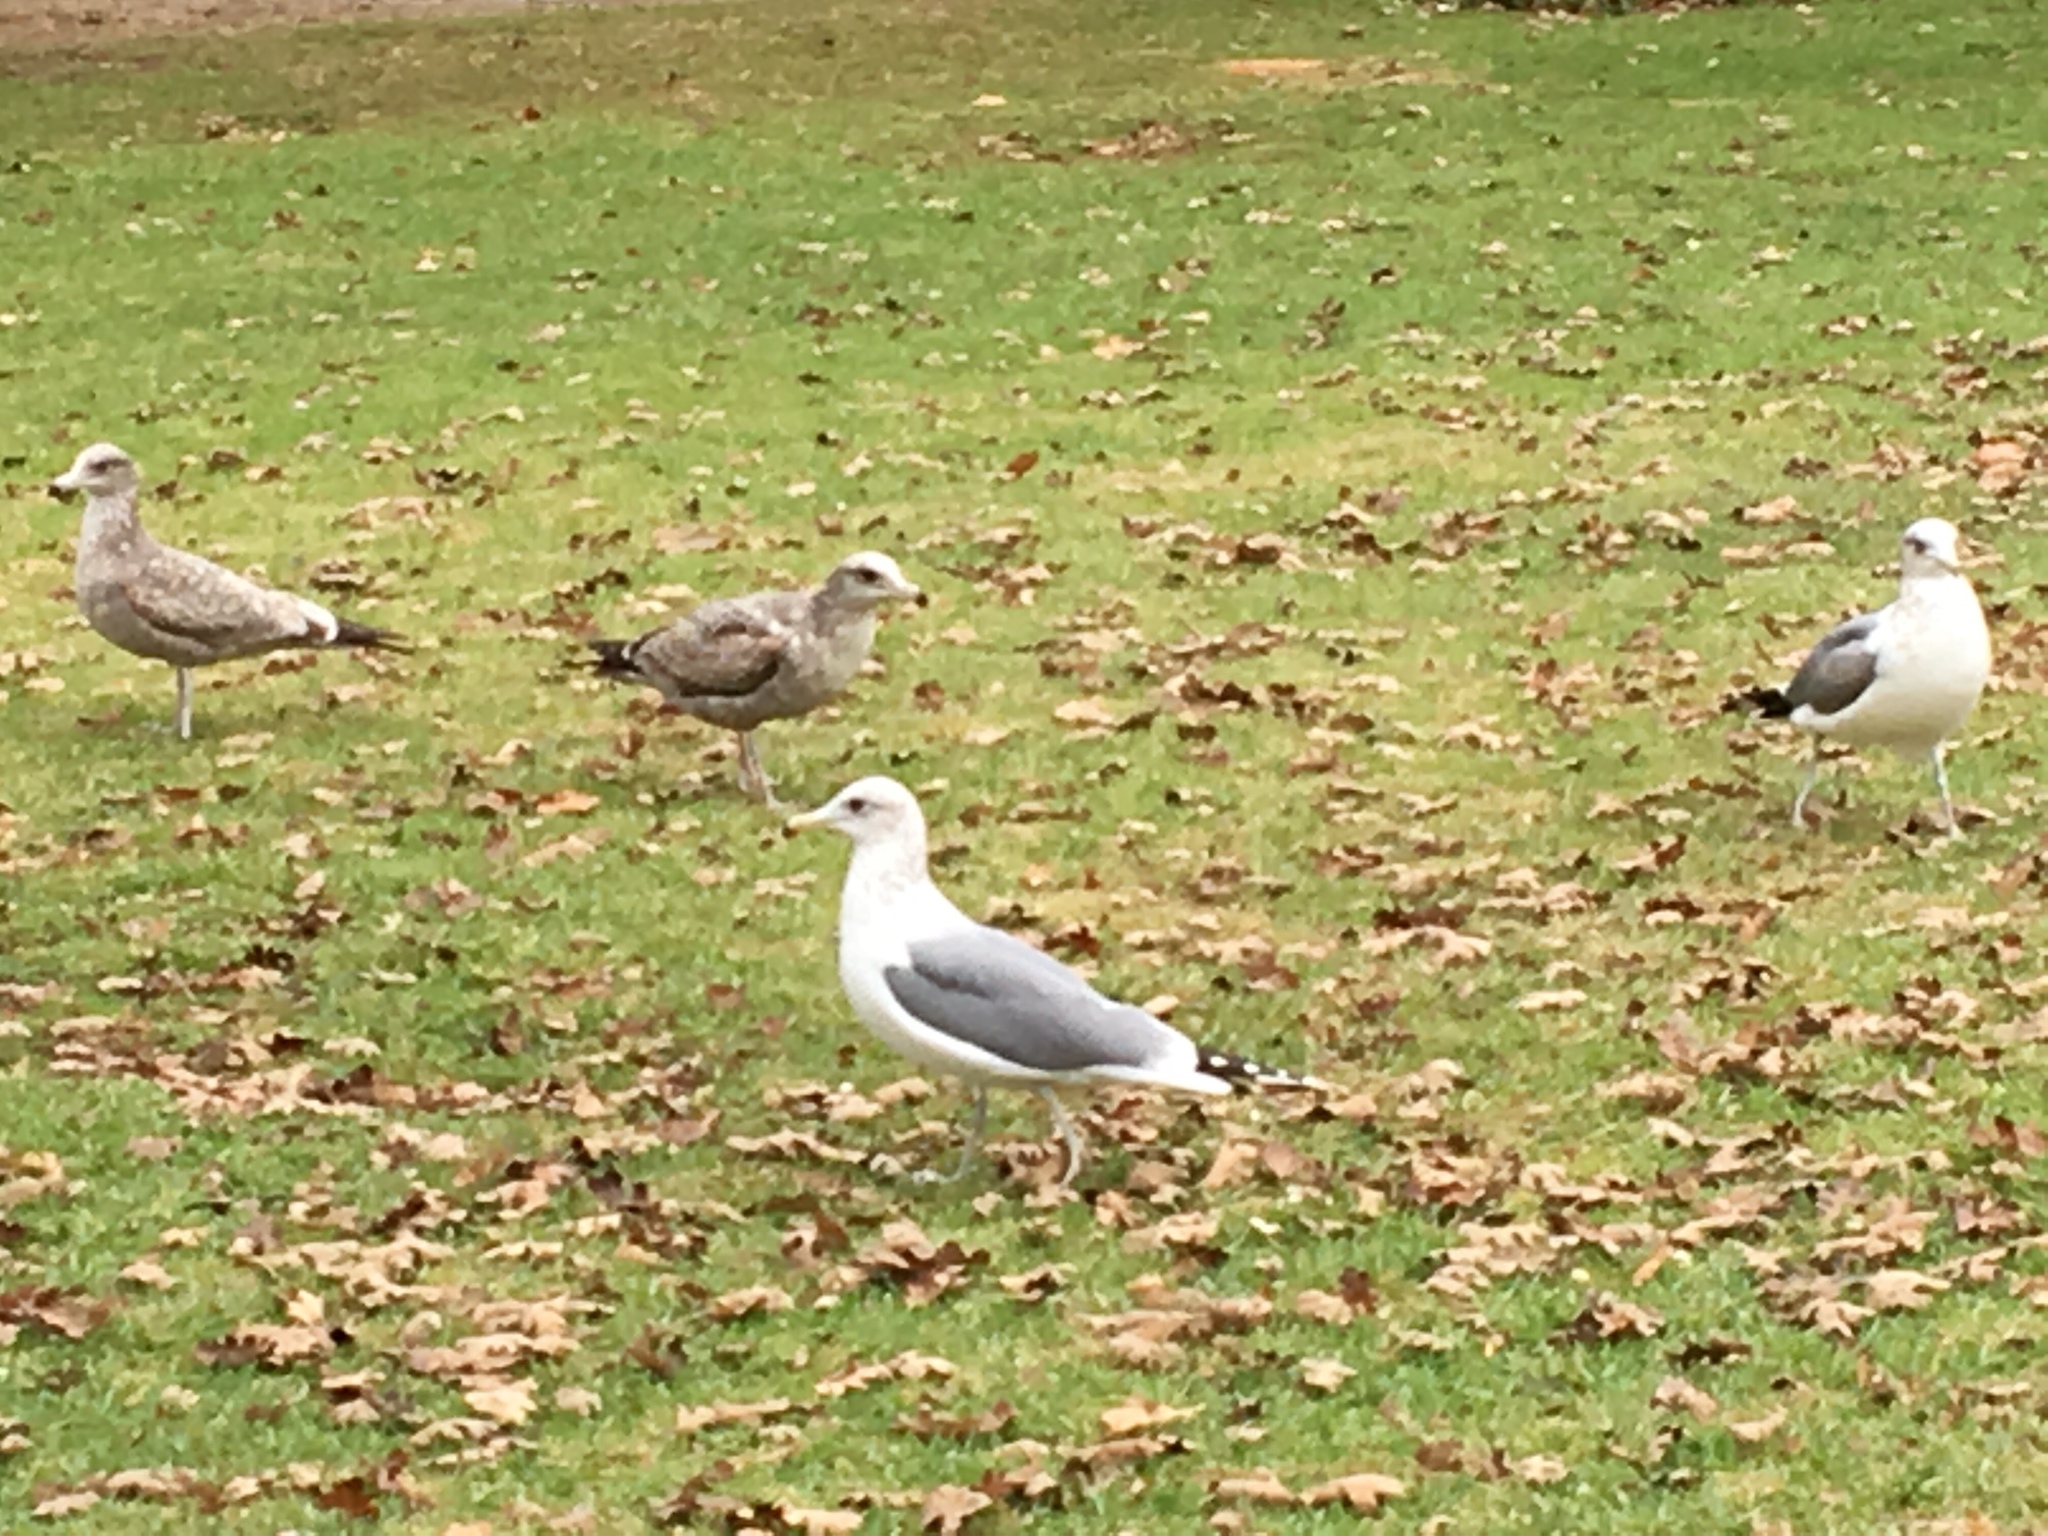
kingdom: Animalia
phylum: Chordata
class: Aves
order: Charadriiformes
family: Laridae
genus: Larus
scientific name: Larus californicus
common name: California gull
